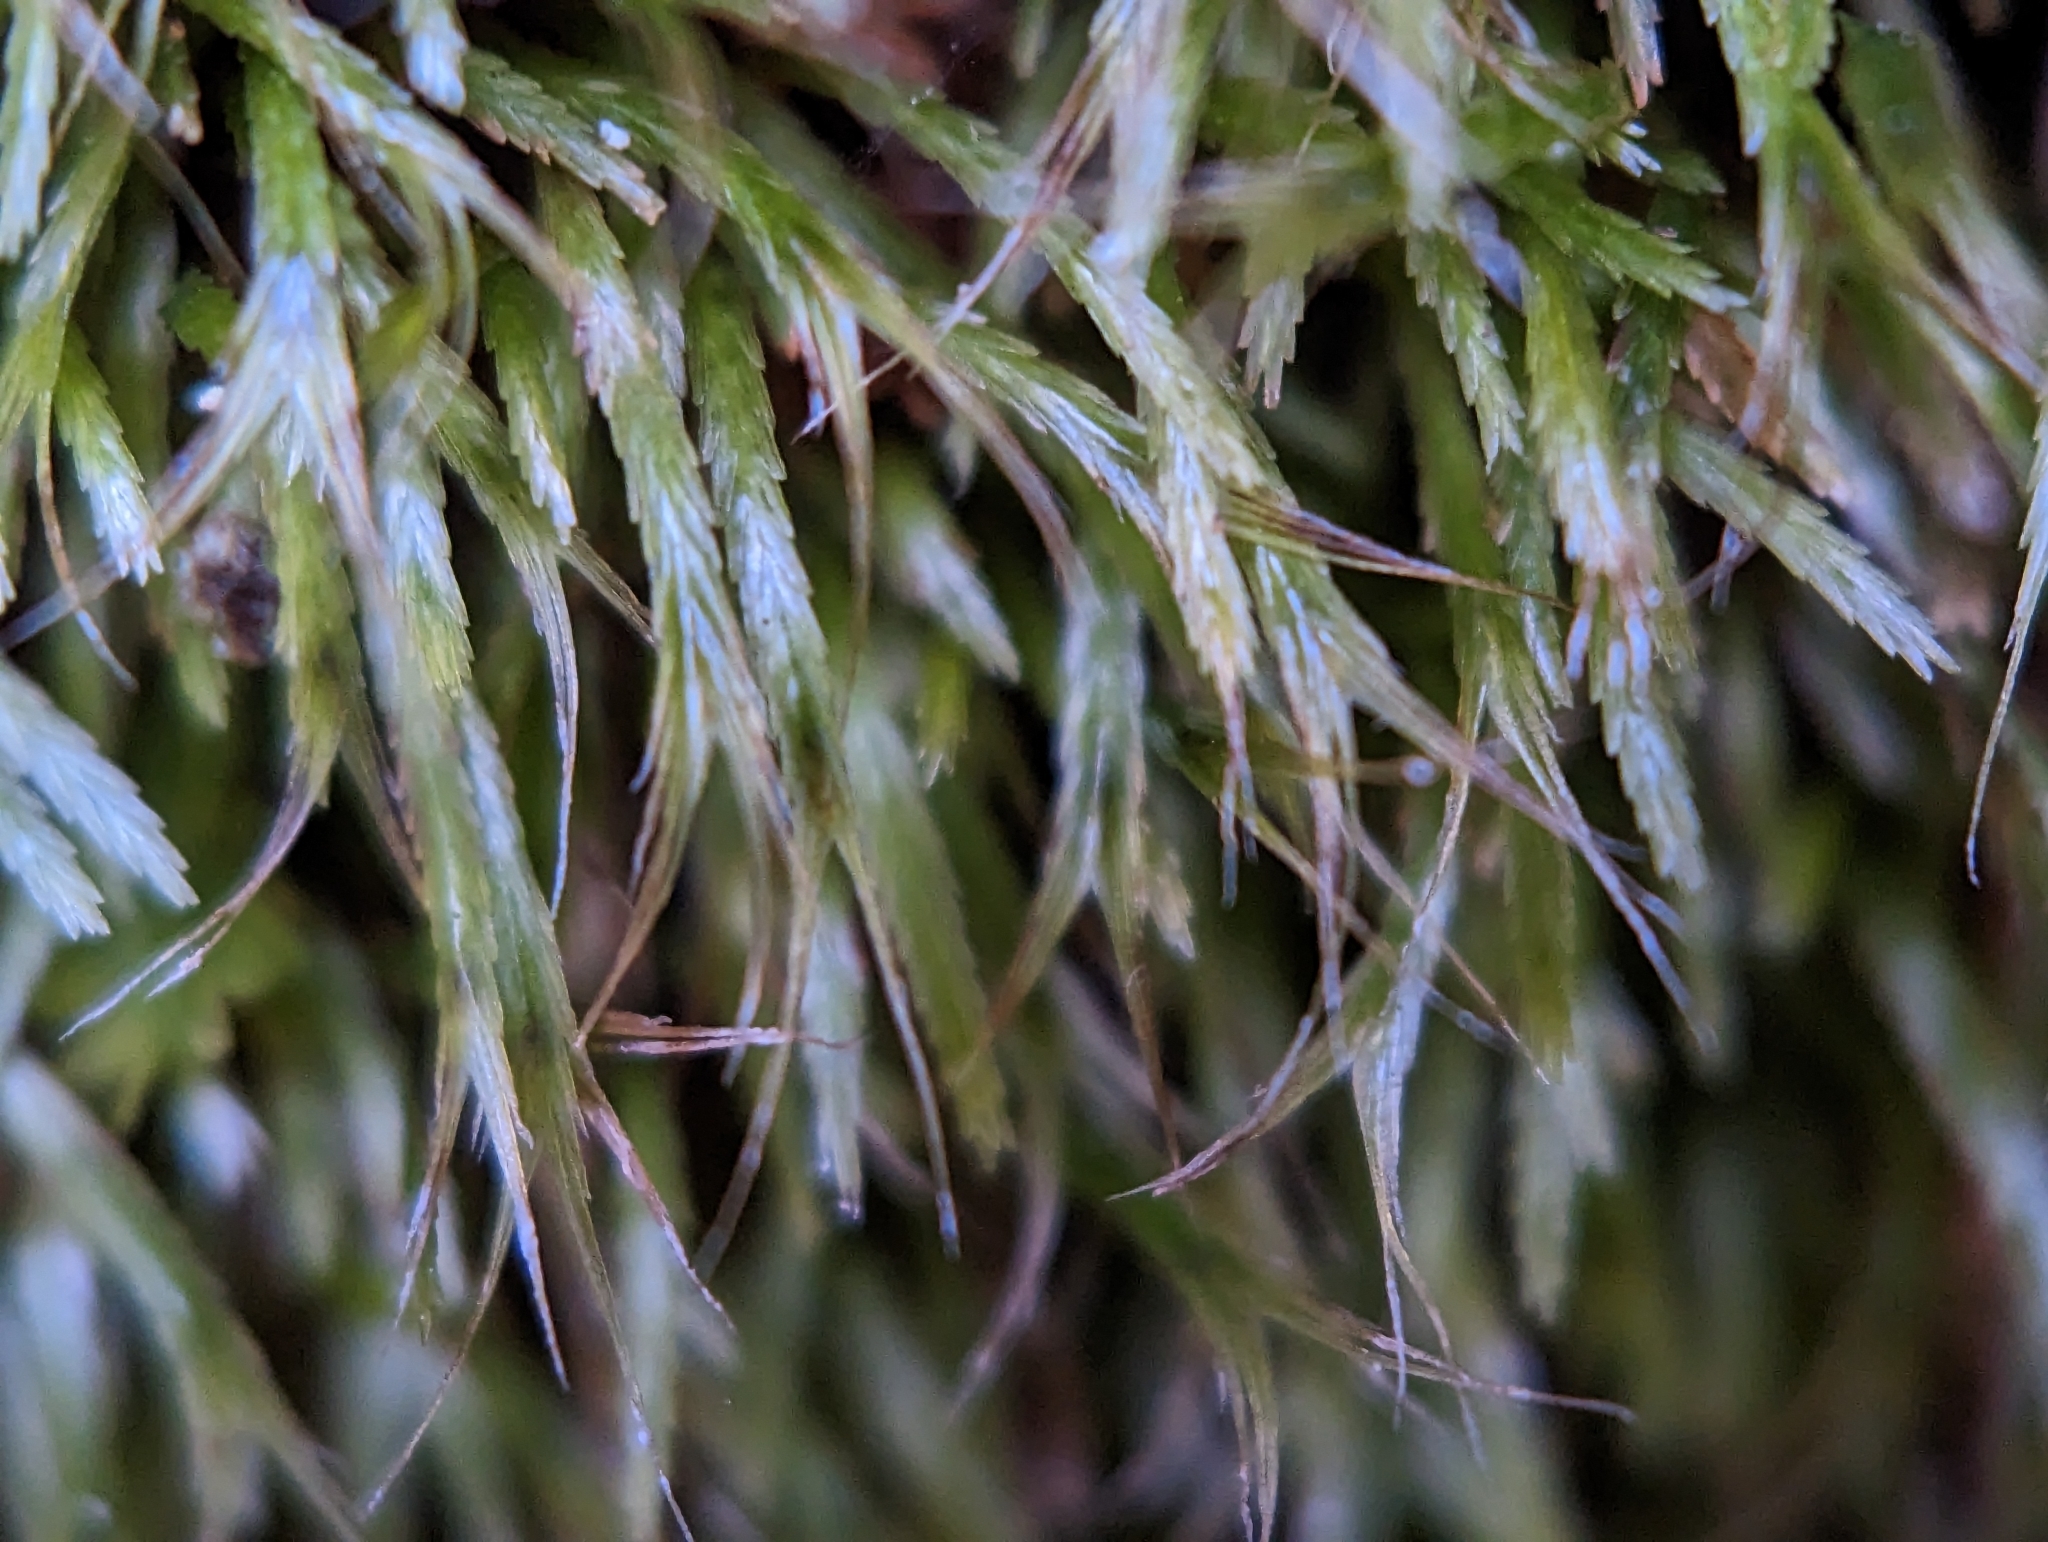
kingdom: Plantae
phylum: Bryophyta
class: Bryopsida
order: Bryoxiphiales
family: Bryoxiphiaceae
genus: Bryoxiphium
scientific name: Bryoxiphium norvegicum
